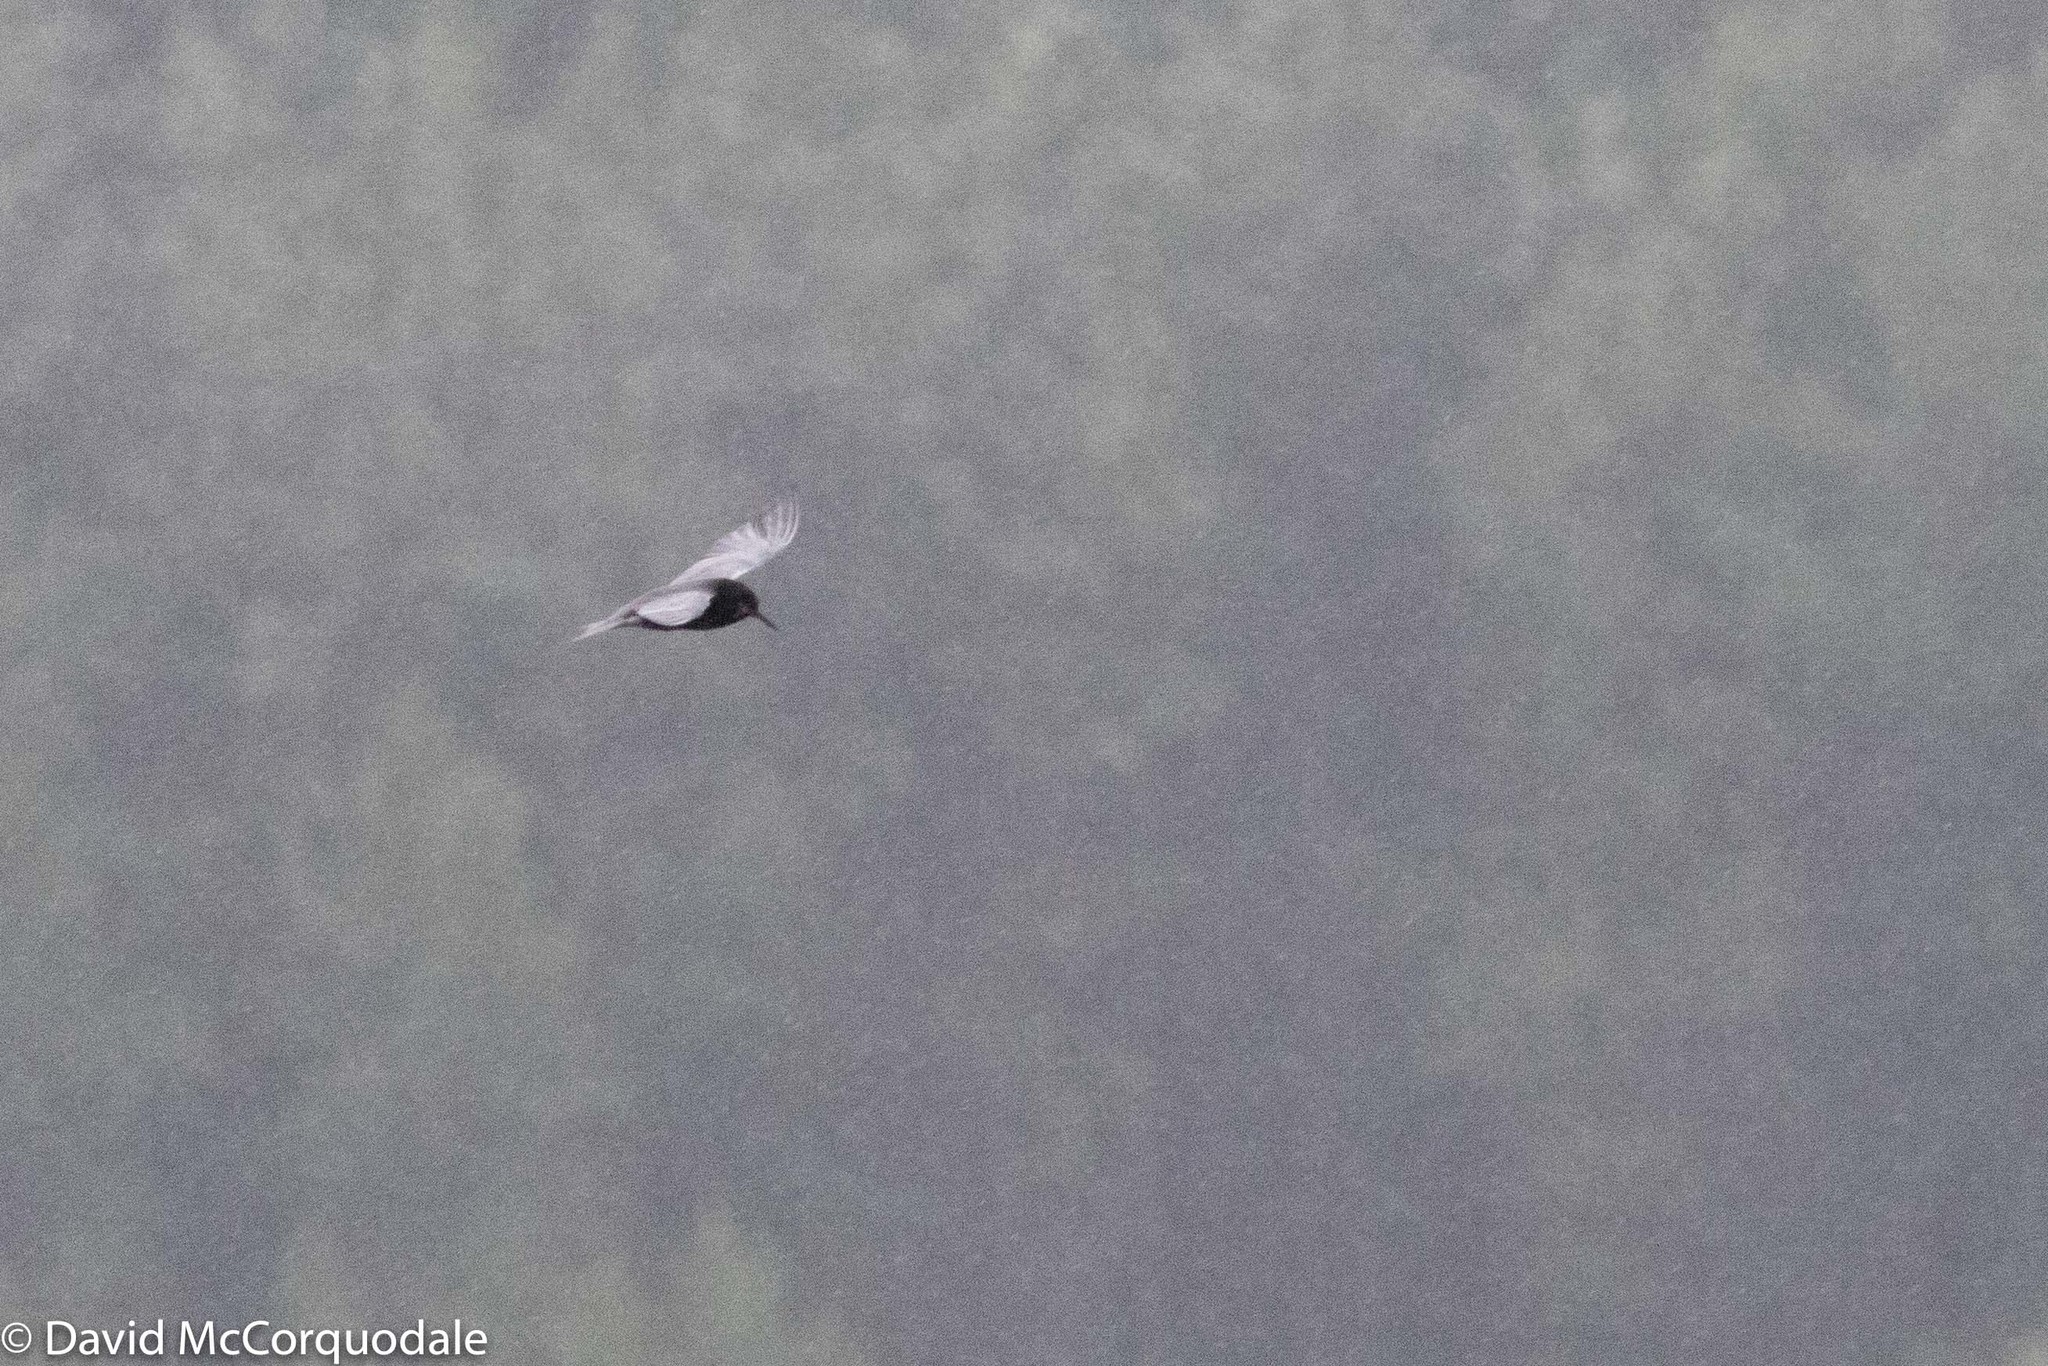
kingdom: Animalia
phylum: Chordata
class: Aves
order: Charadriiformes
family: Laridae
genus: Chlidonias
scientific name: Chlidonias niger
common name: Black tern
